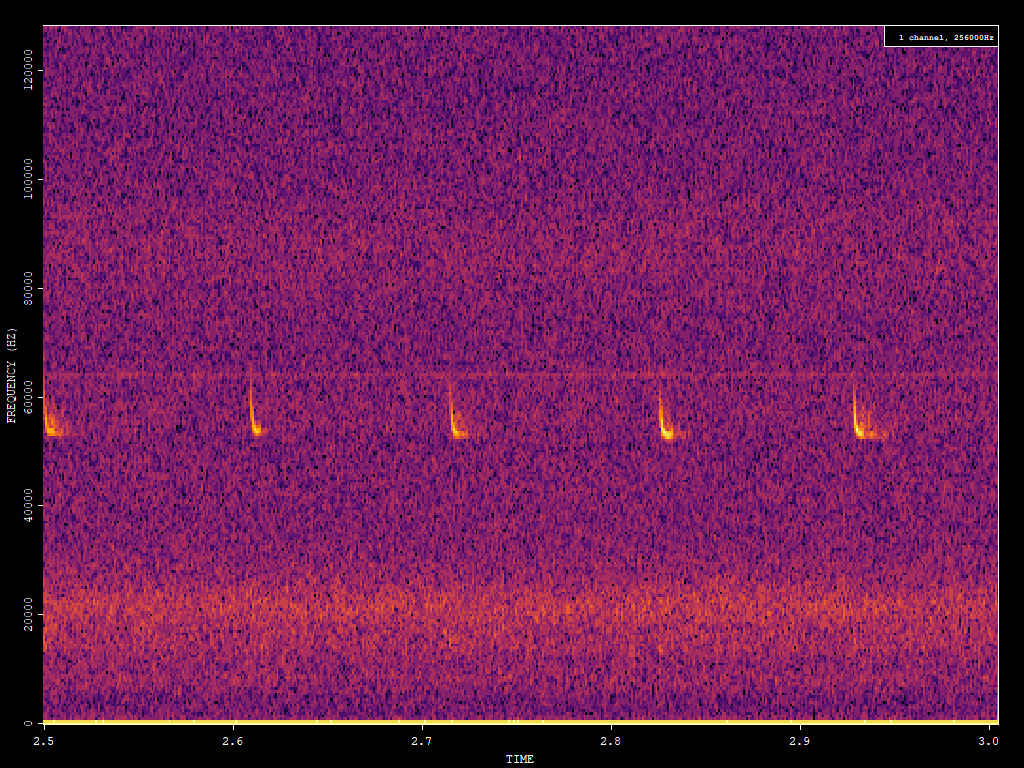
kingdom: Animalia
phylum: Chordata
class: Mammalia
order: Chiroptera
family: Vespertilionidae
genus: Pipistrellus
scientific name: Pipistrellus pygmaeus
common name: Soprano pipistrelle
